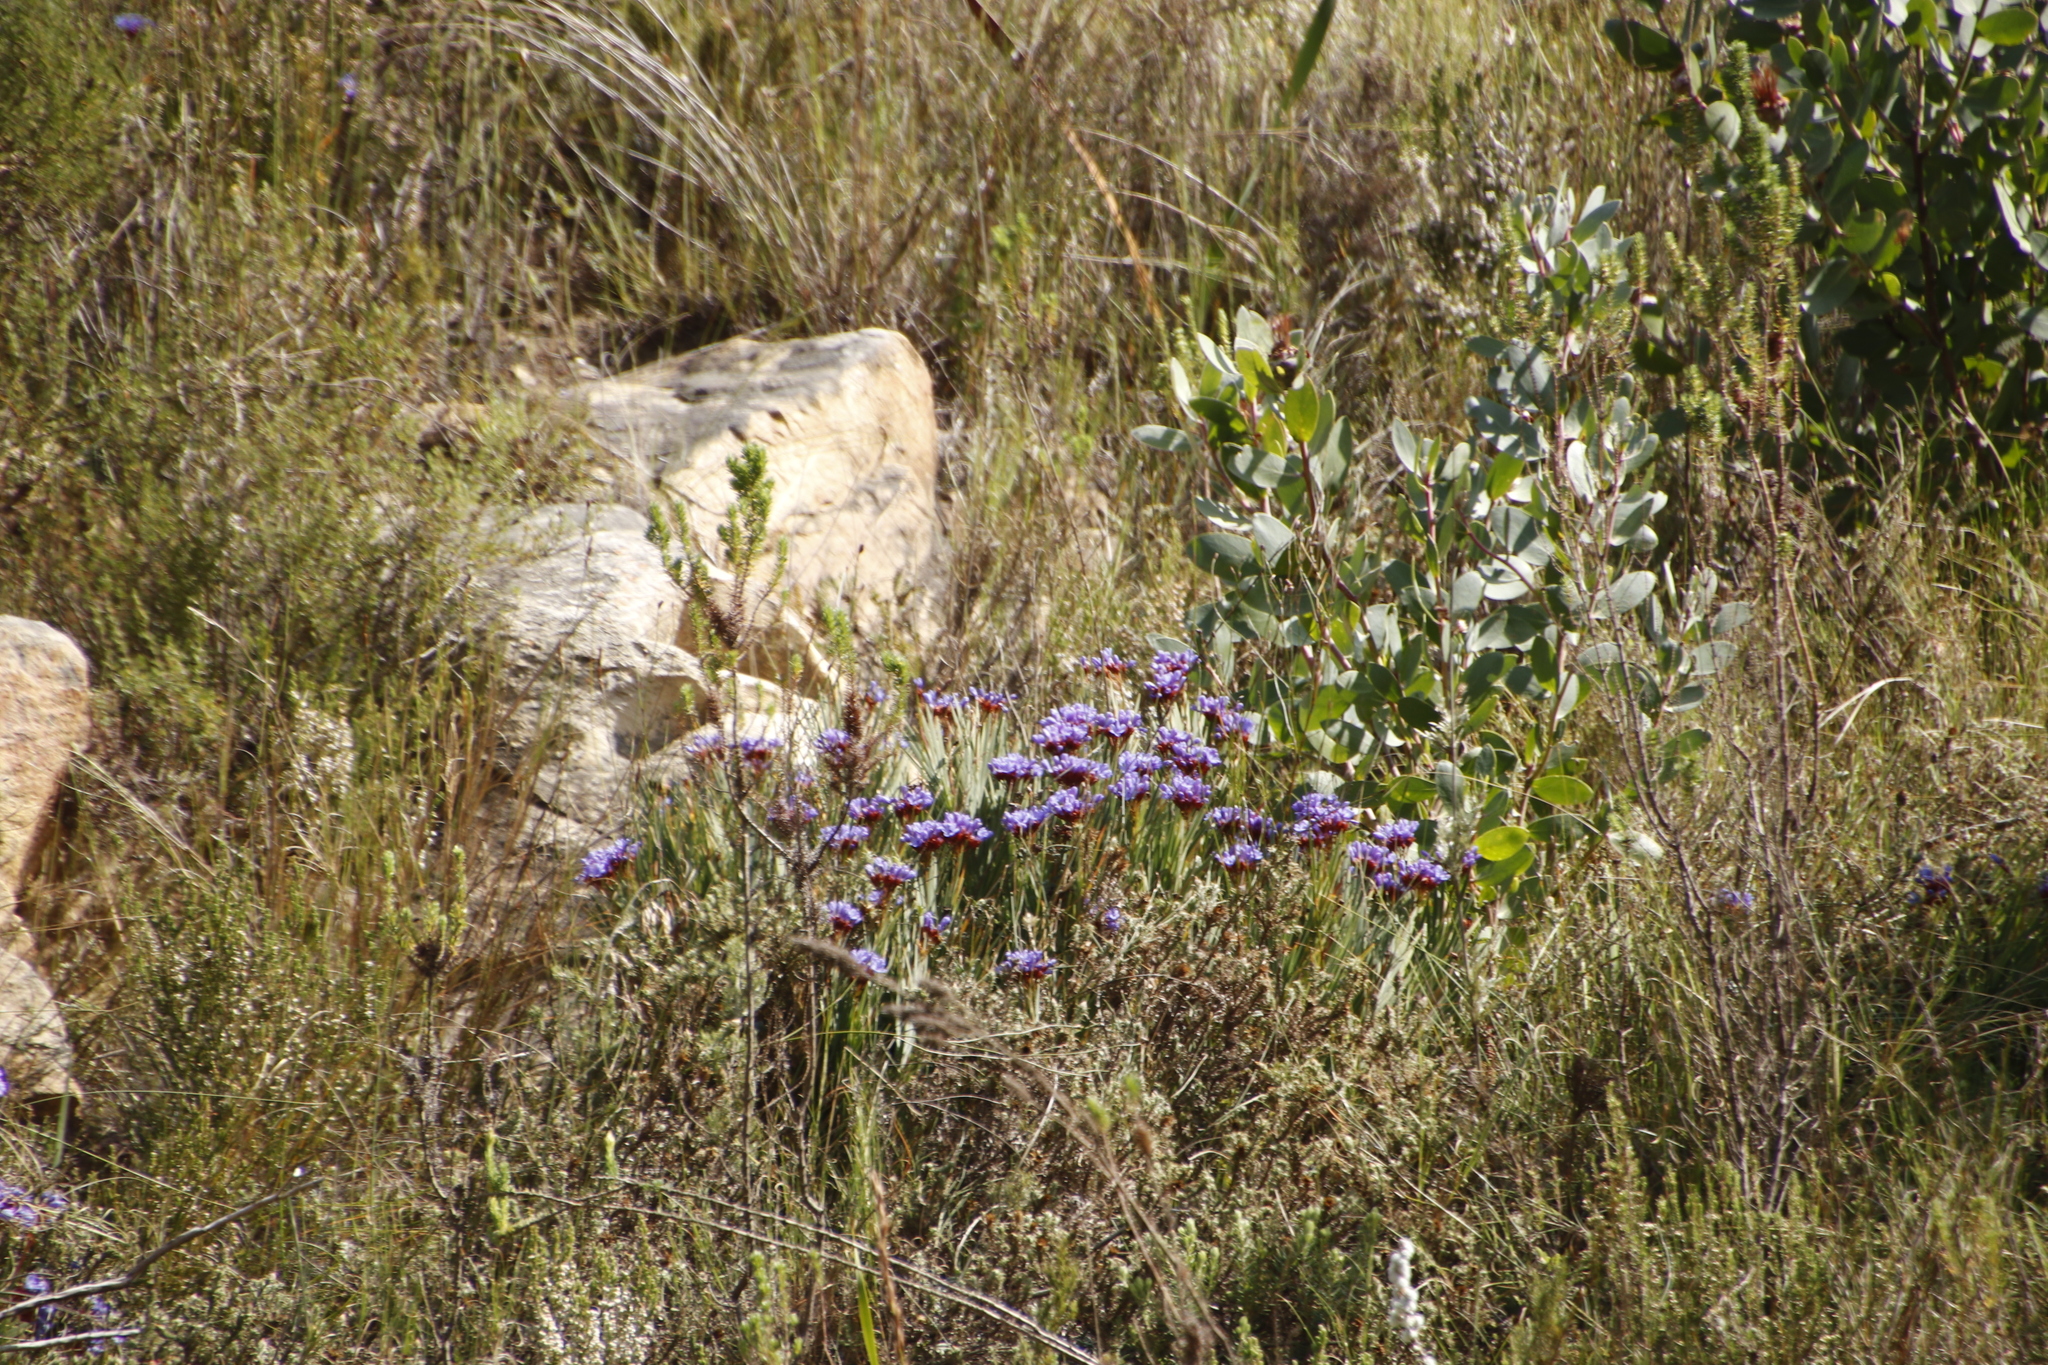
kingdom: Plantae
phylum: Tracheophyta
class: Liliopsida
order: Asparagales
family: Iridaceae
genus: Nivenia
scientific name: Nivenia binata
